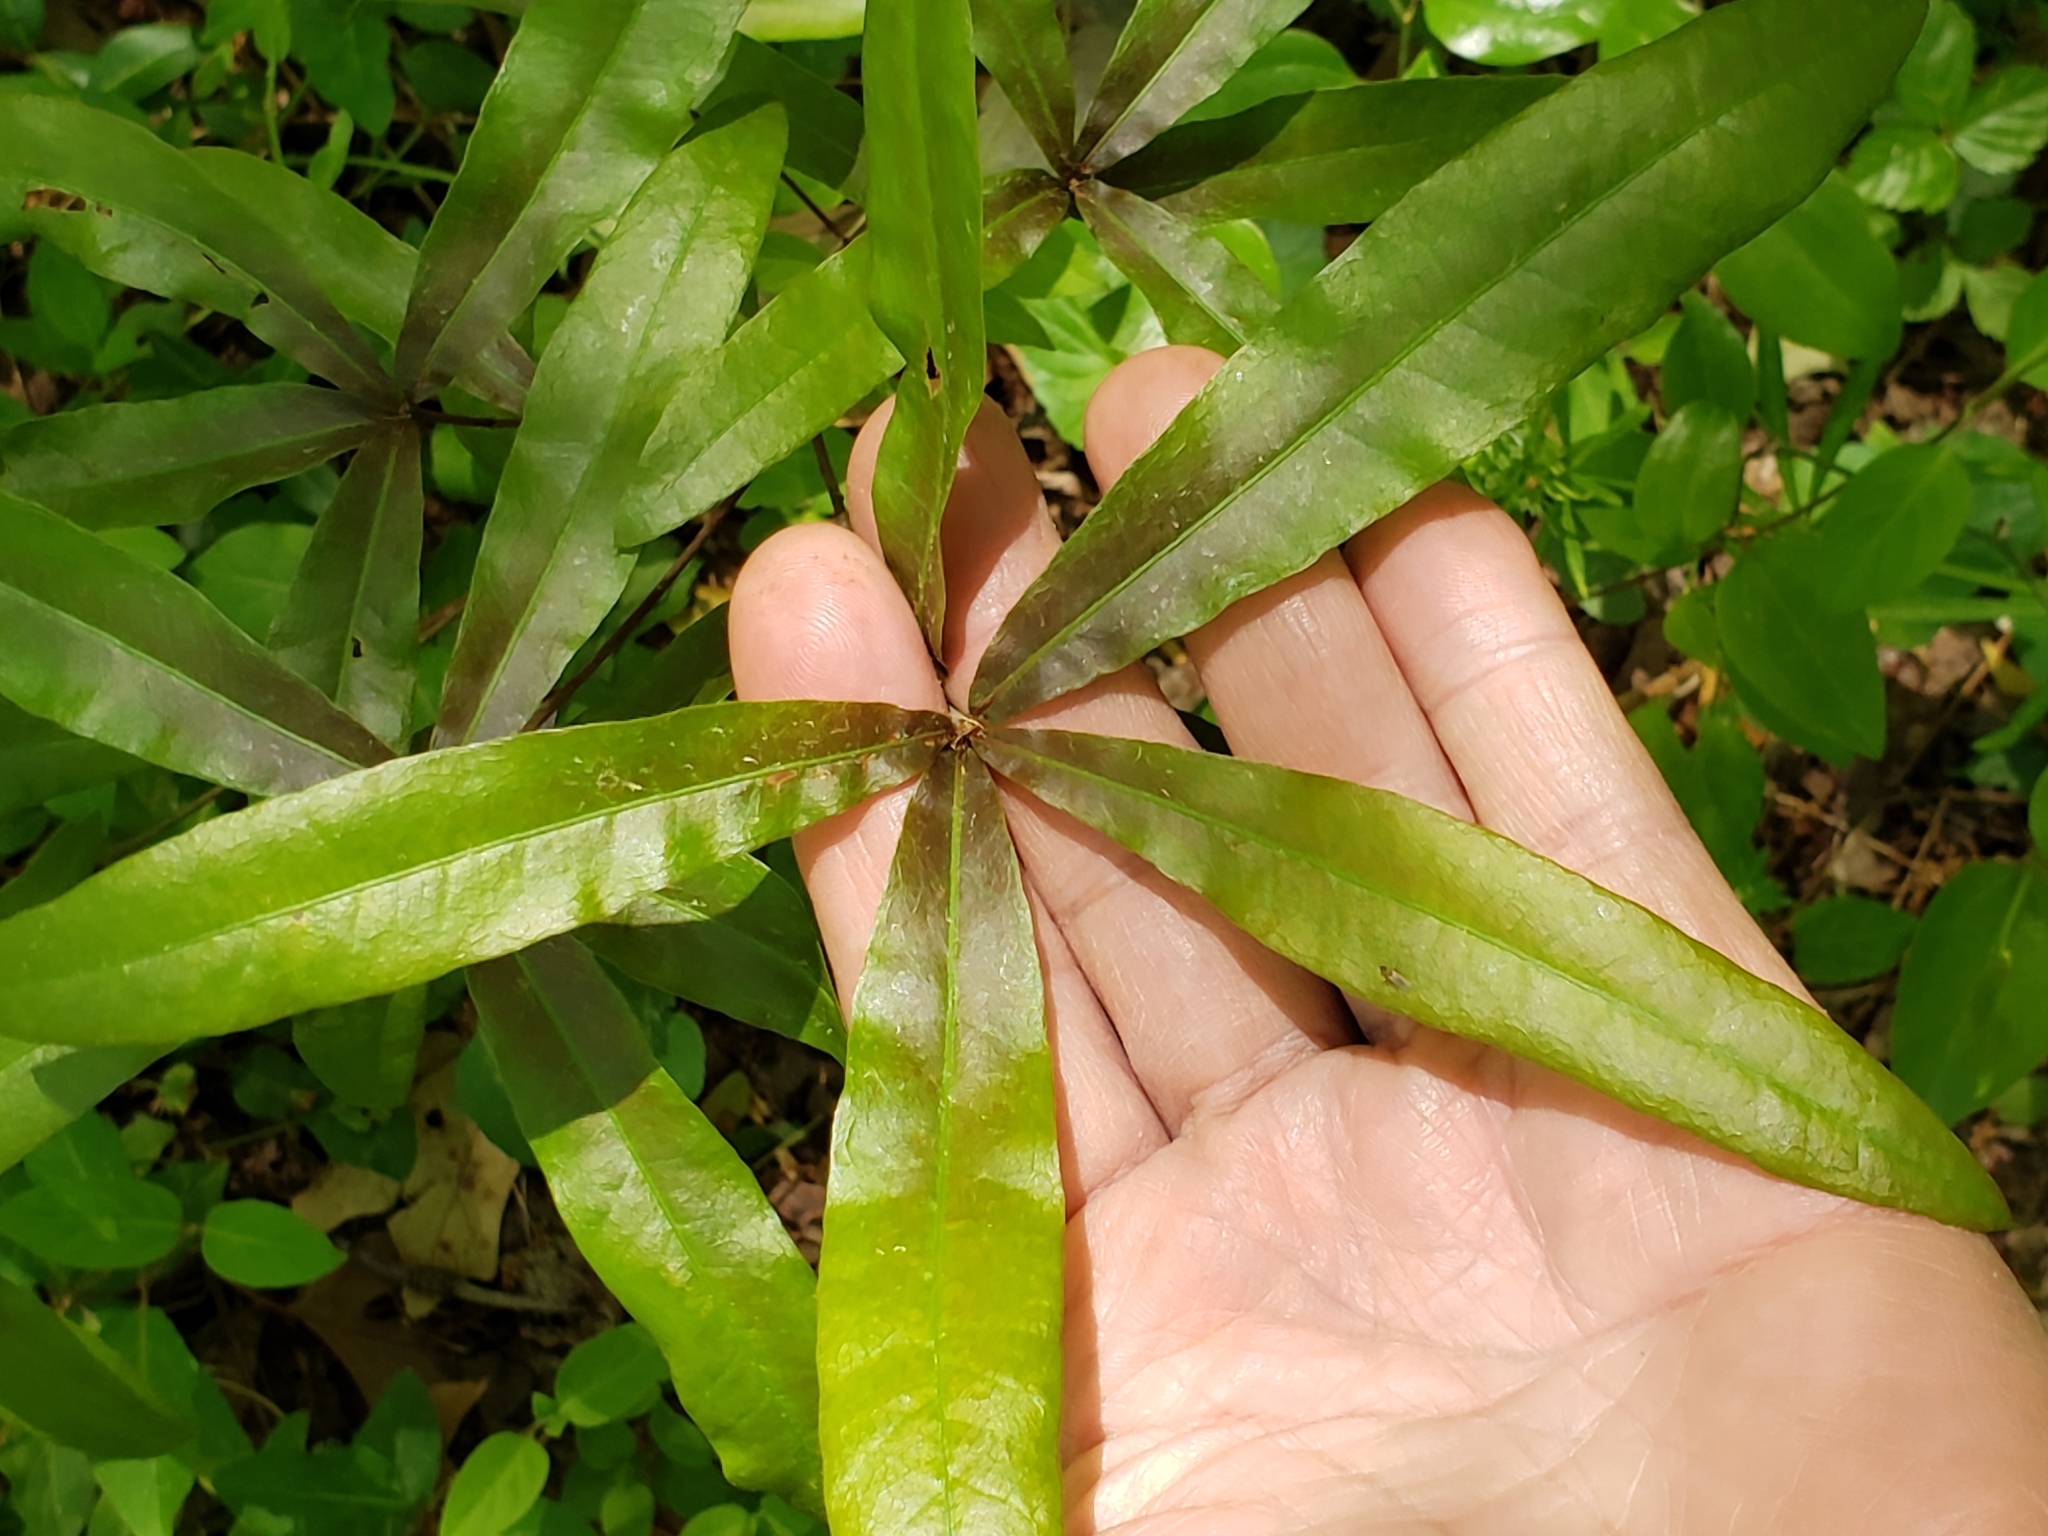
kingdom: Plantae
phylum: Tracheophyta
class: Magnoliopsida
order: Fagales
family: Fagaceae
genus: Quercus
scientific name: Quercus phellos
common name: Willow oak
